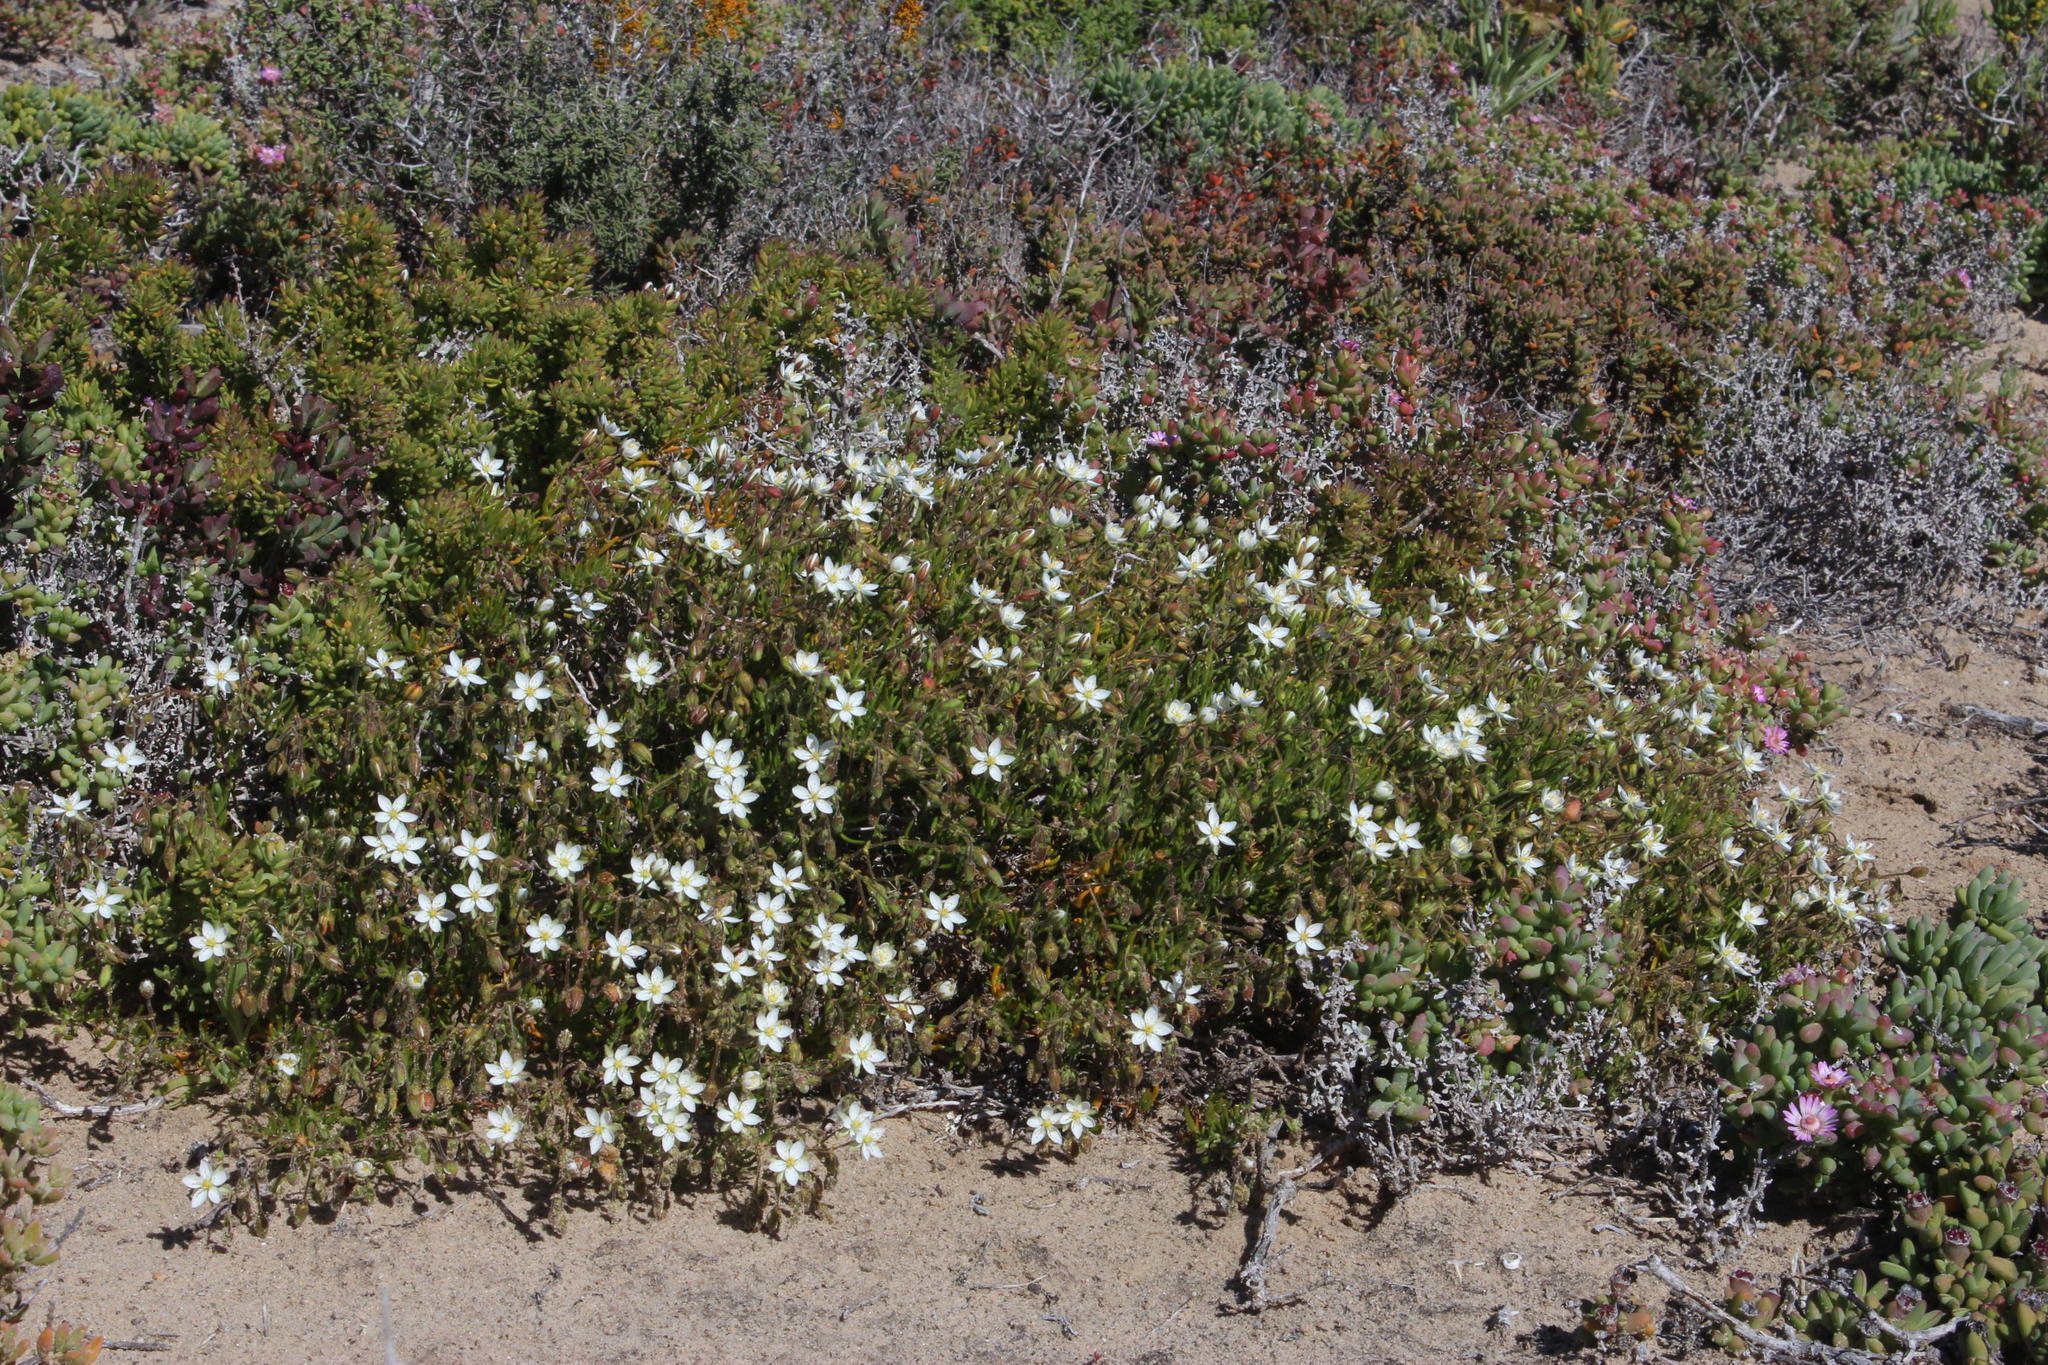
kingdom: Plantae
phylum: Tracheophyta
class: Magnoliopsida
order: Caryophyllales
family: Caryophyllaceae
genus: Spergularia
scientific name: Spergularia media
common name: Greater sea-spurrey
